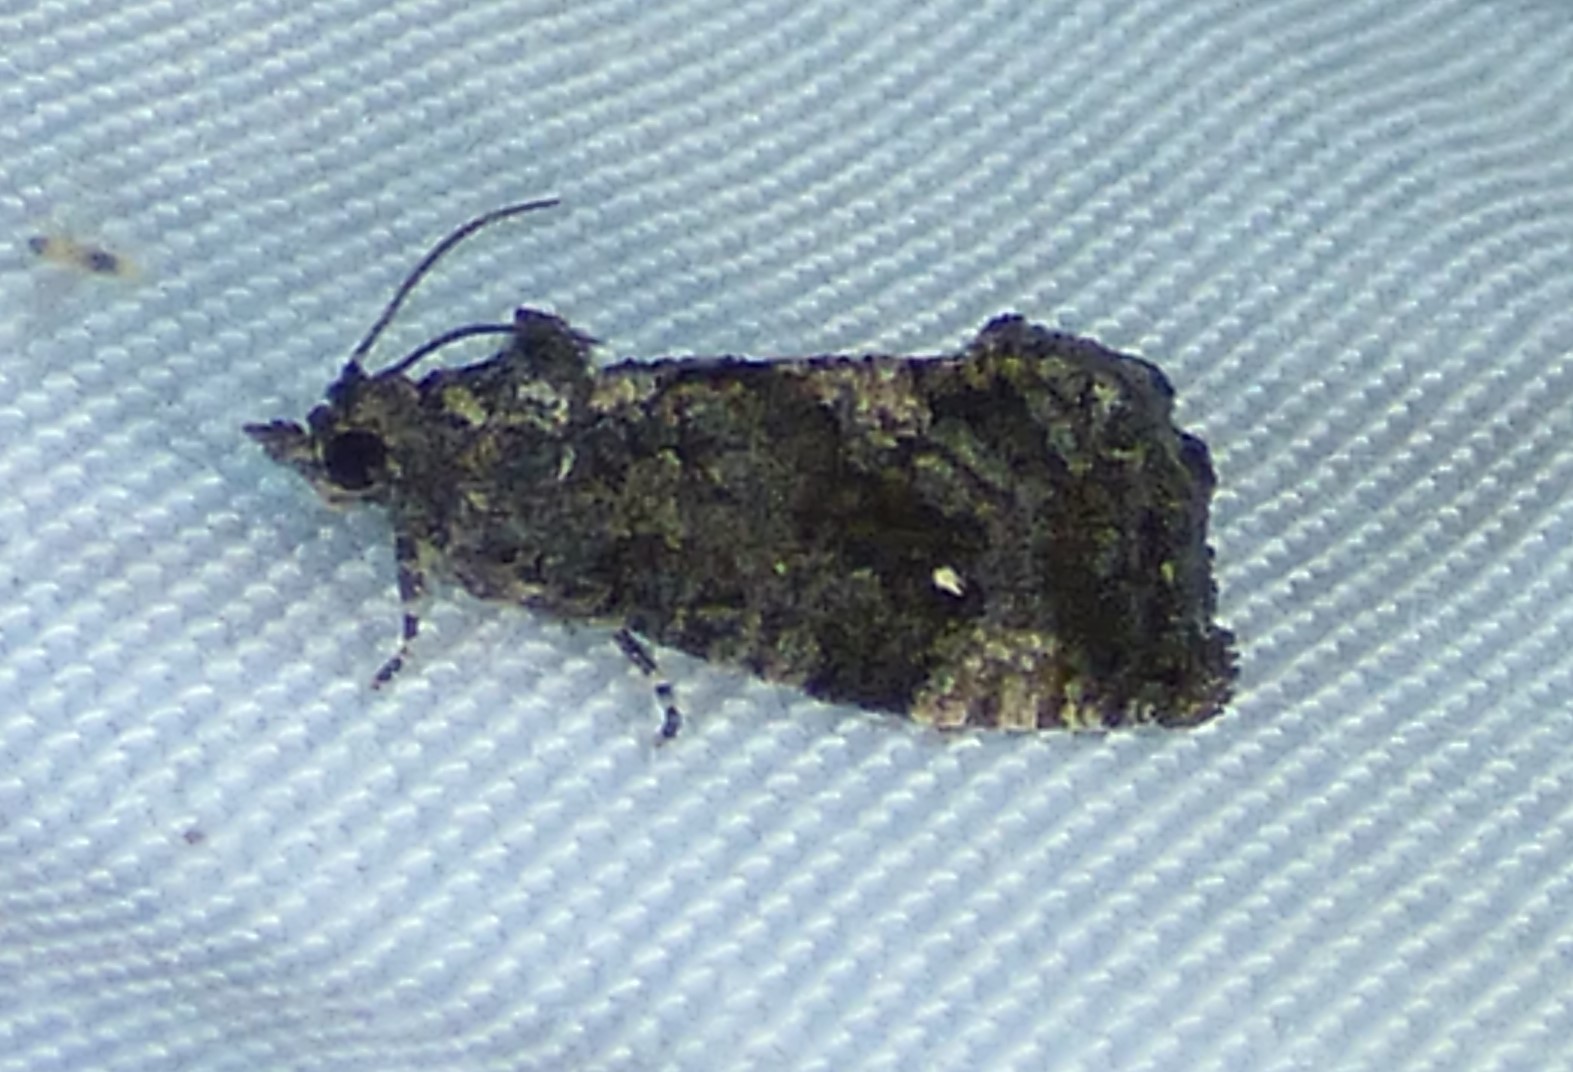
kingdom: Animalia
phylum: Arthropoda
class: Insecta
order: Lepidoptera
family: Tortricidae
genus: Gymnandrosoma
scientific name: Gymnandrosoma punctidiscanum
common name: Dotted ecdytolopha moth
